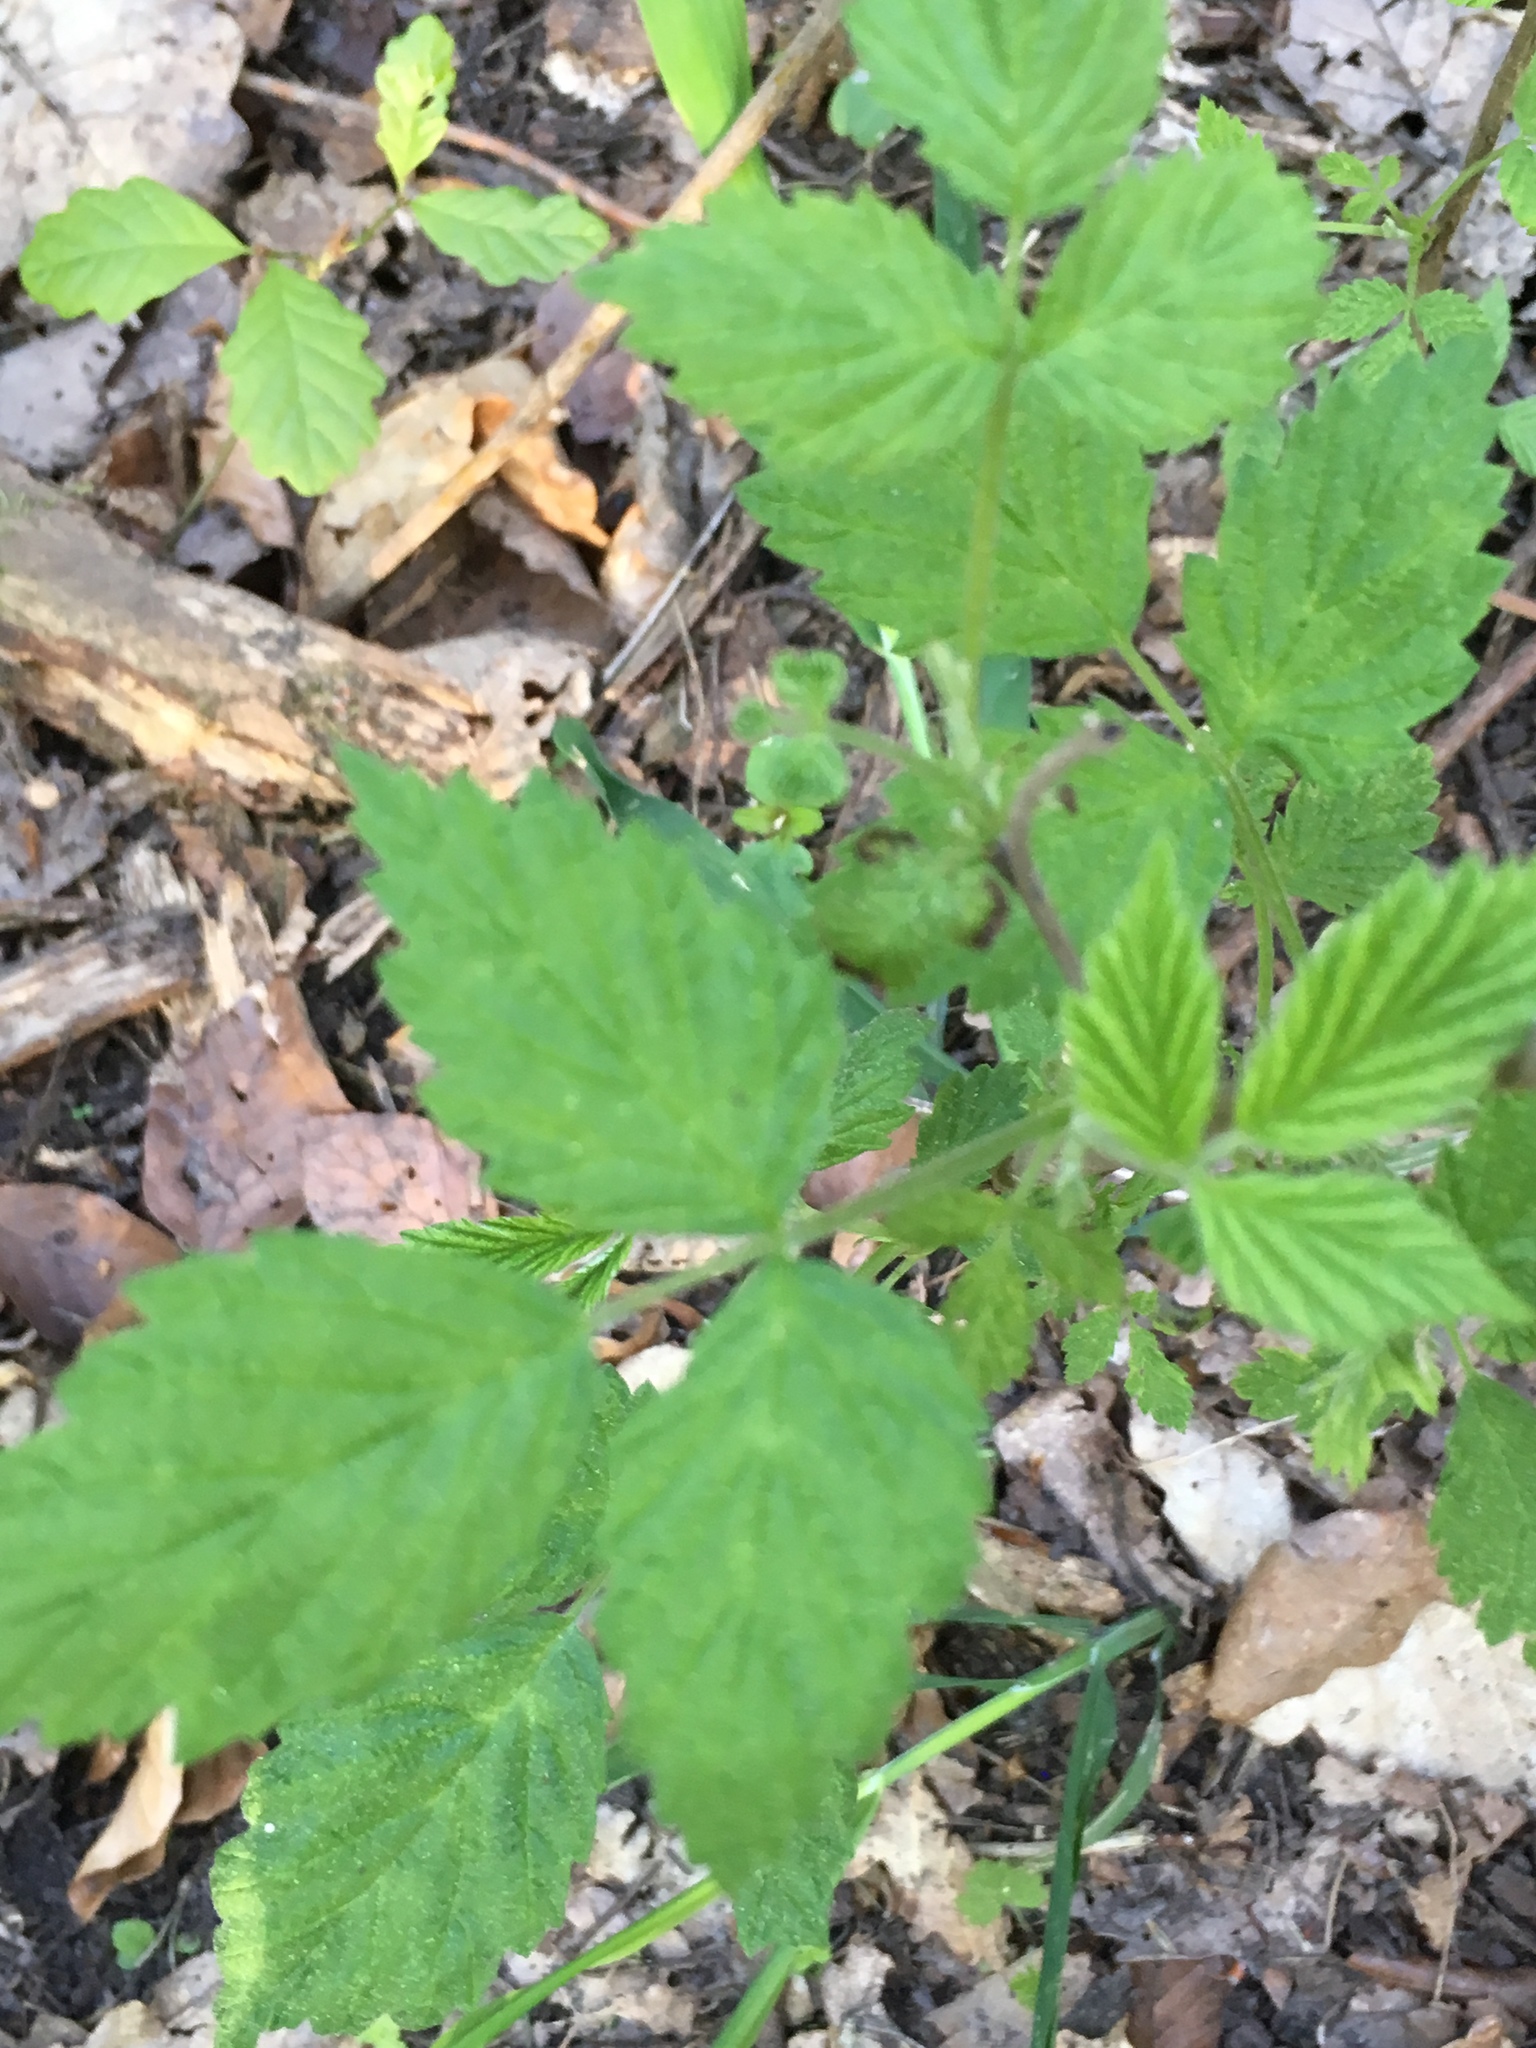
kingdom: Plantae
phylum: Tracheophyta
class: Magnoliopsida
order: Rosales
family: Rosaceae
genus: Rubus
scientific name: Rubus idaeus
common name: Raspberry
